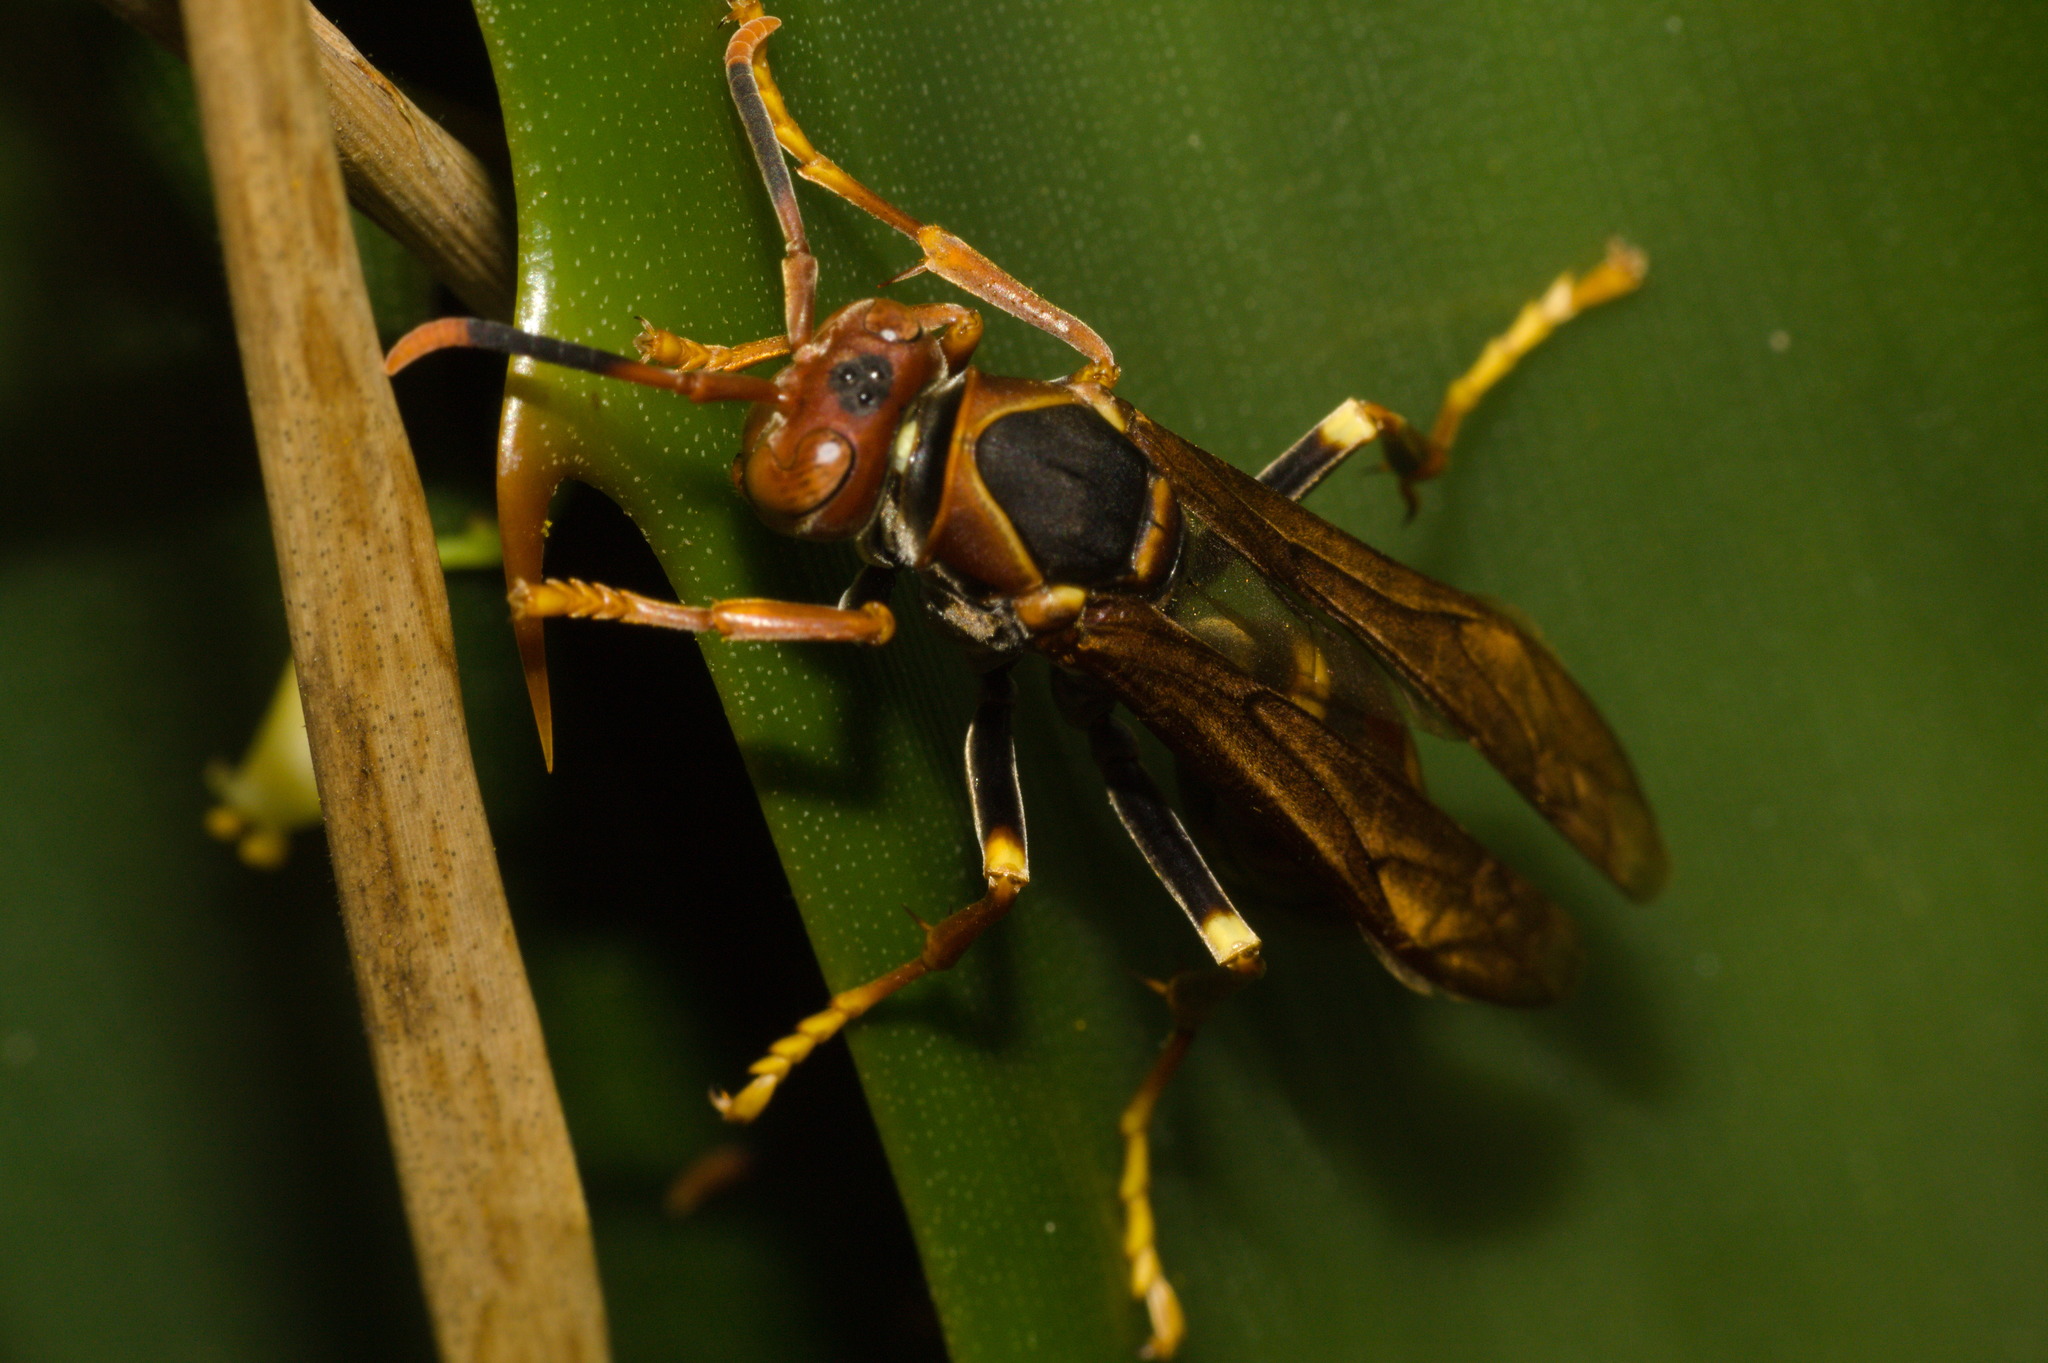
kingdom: Animalia
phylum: Arthropoda
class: Insecta
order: Hymenoptera
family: Eumenidae
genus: Polistes
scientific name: Polistes cavapytiformis
